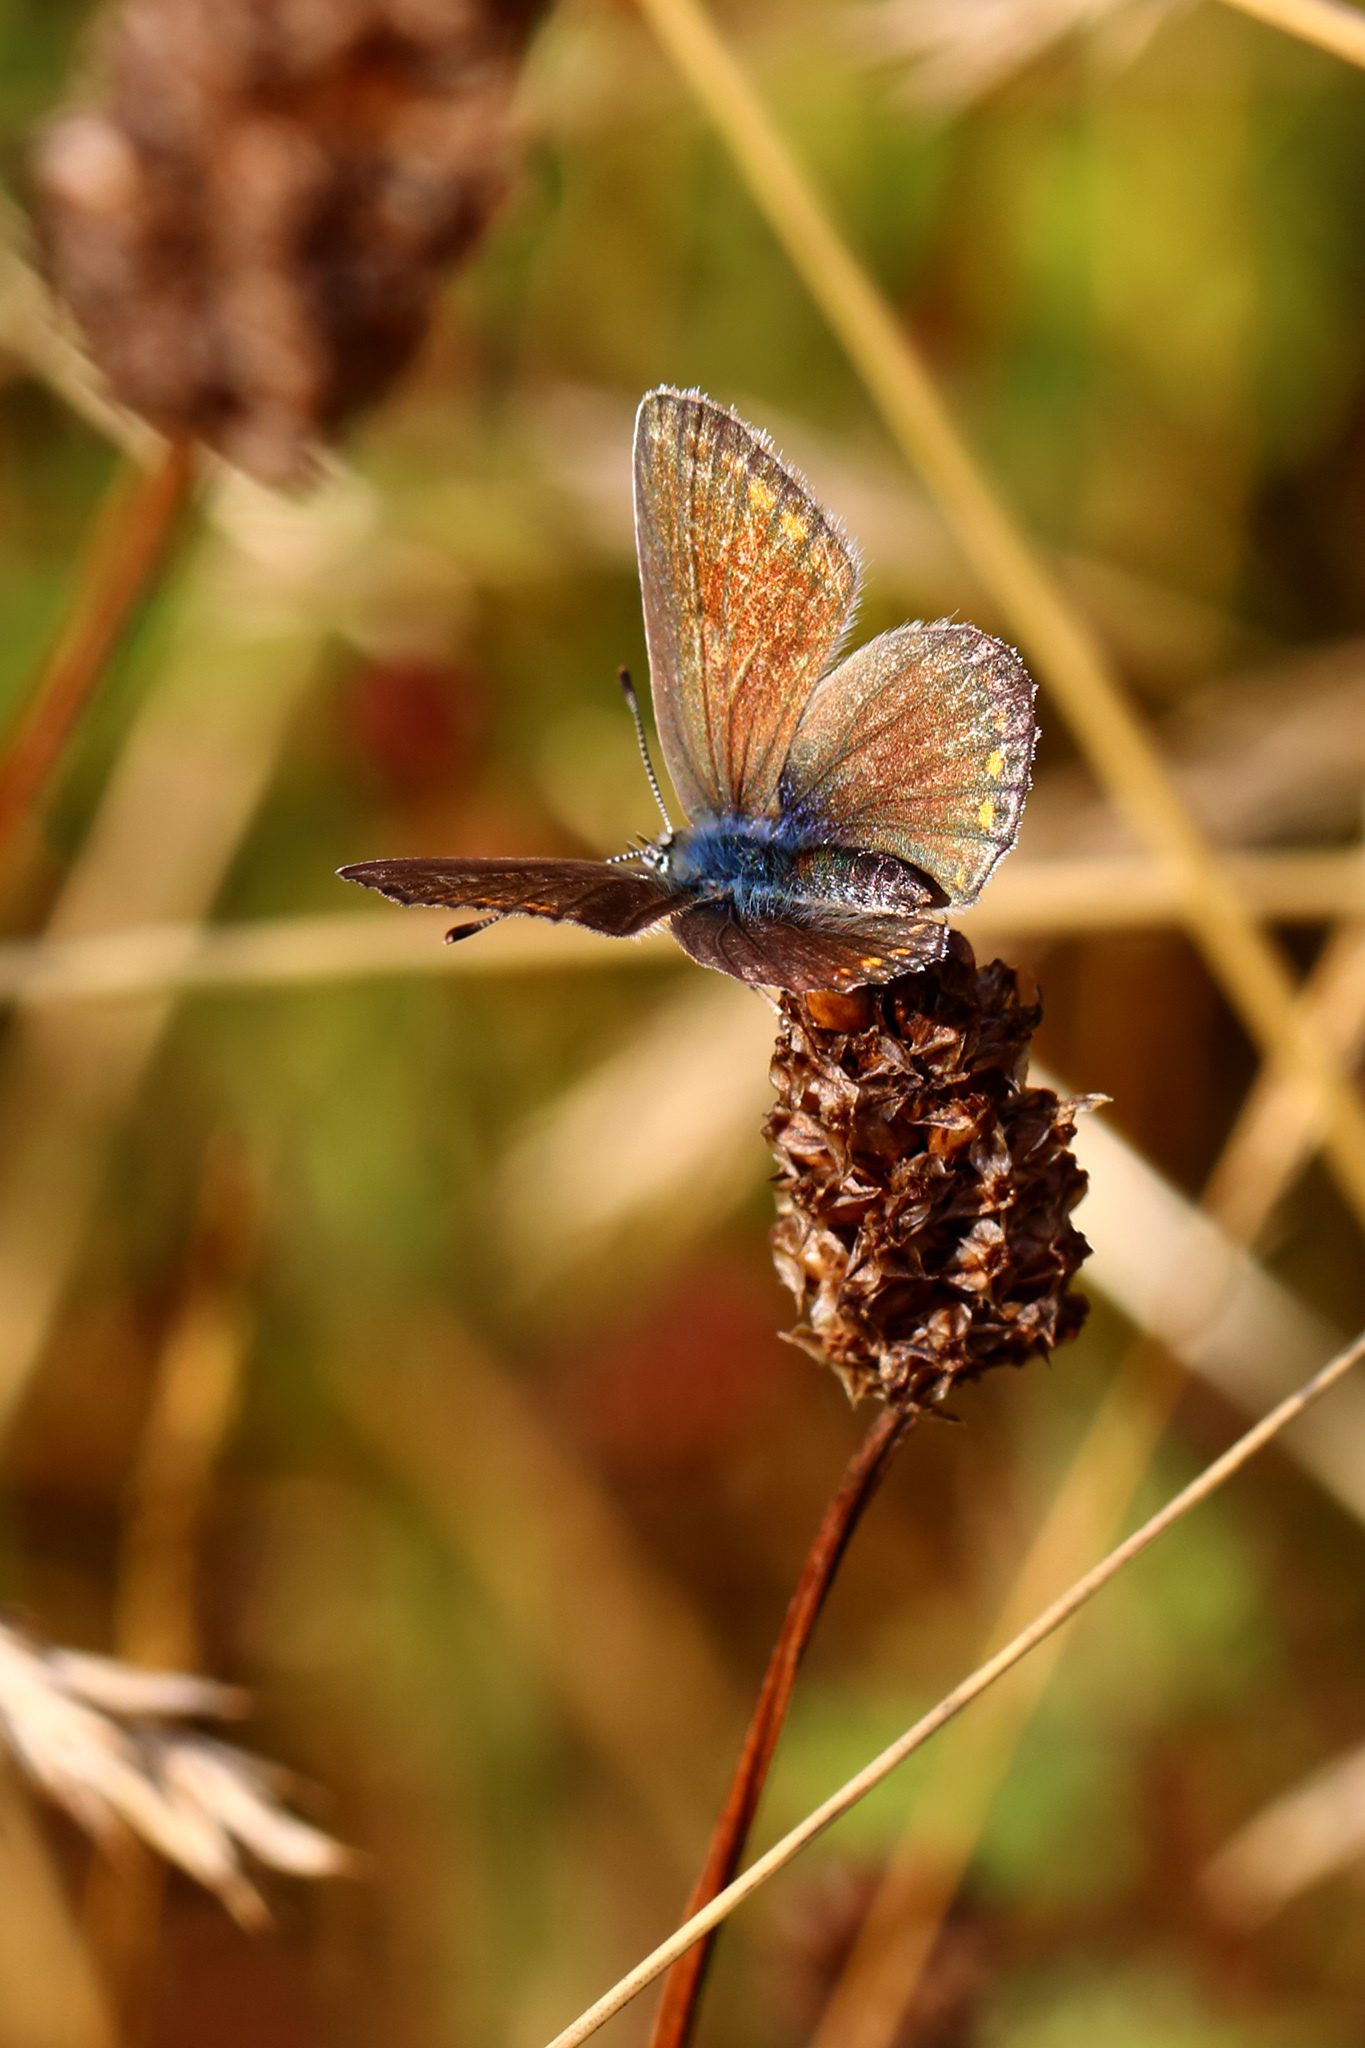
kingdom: Animalia
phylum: Arthropoda
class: Insecta
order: Lepidoptera
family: Lycaenidae
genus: Polyommatus
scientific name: Polyommatus icarus
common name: Common blue
